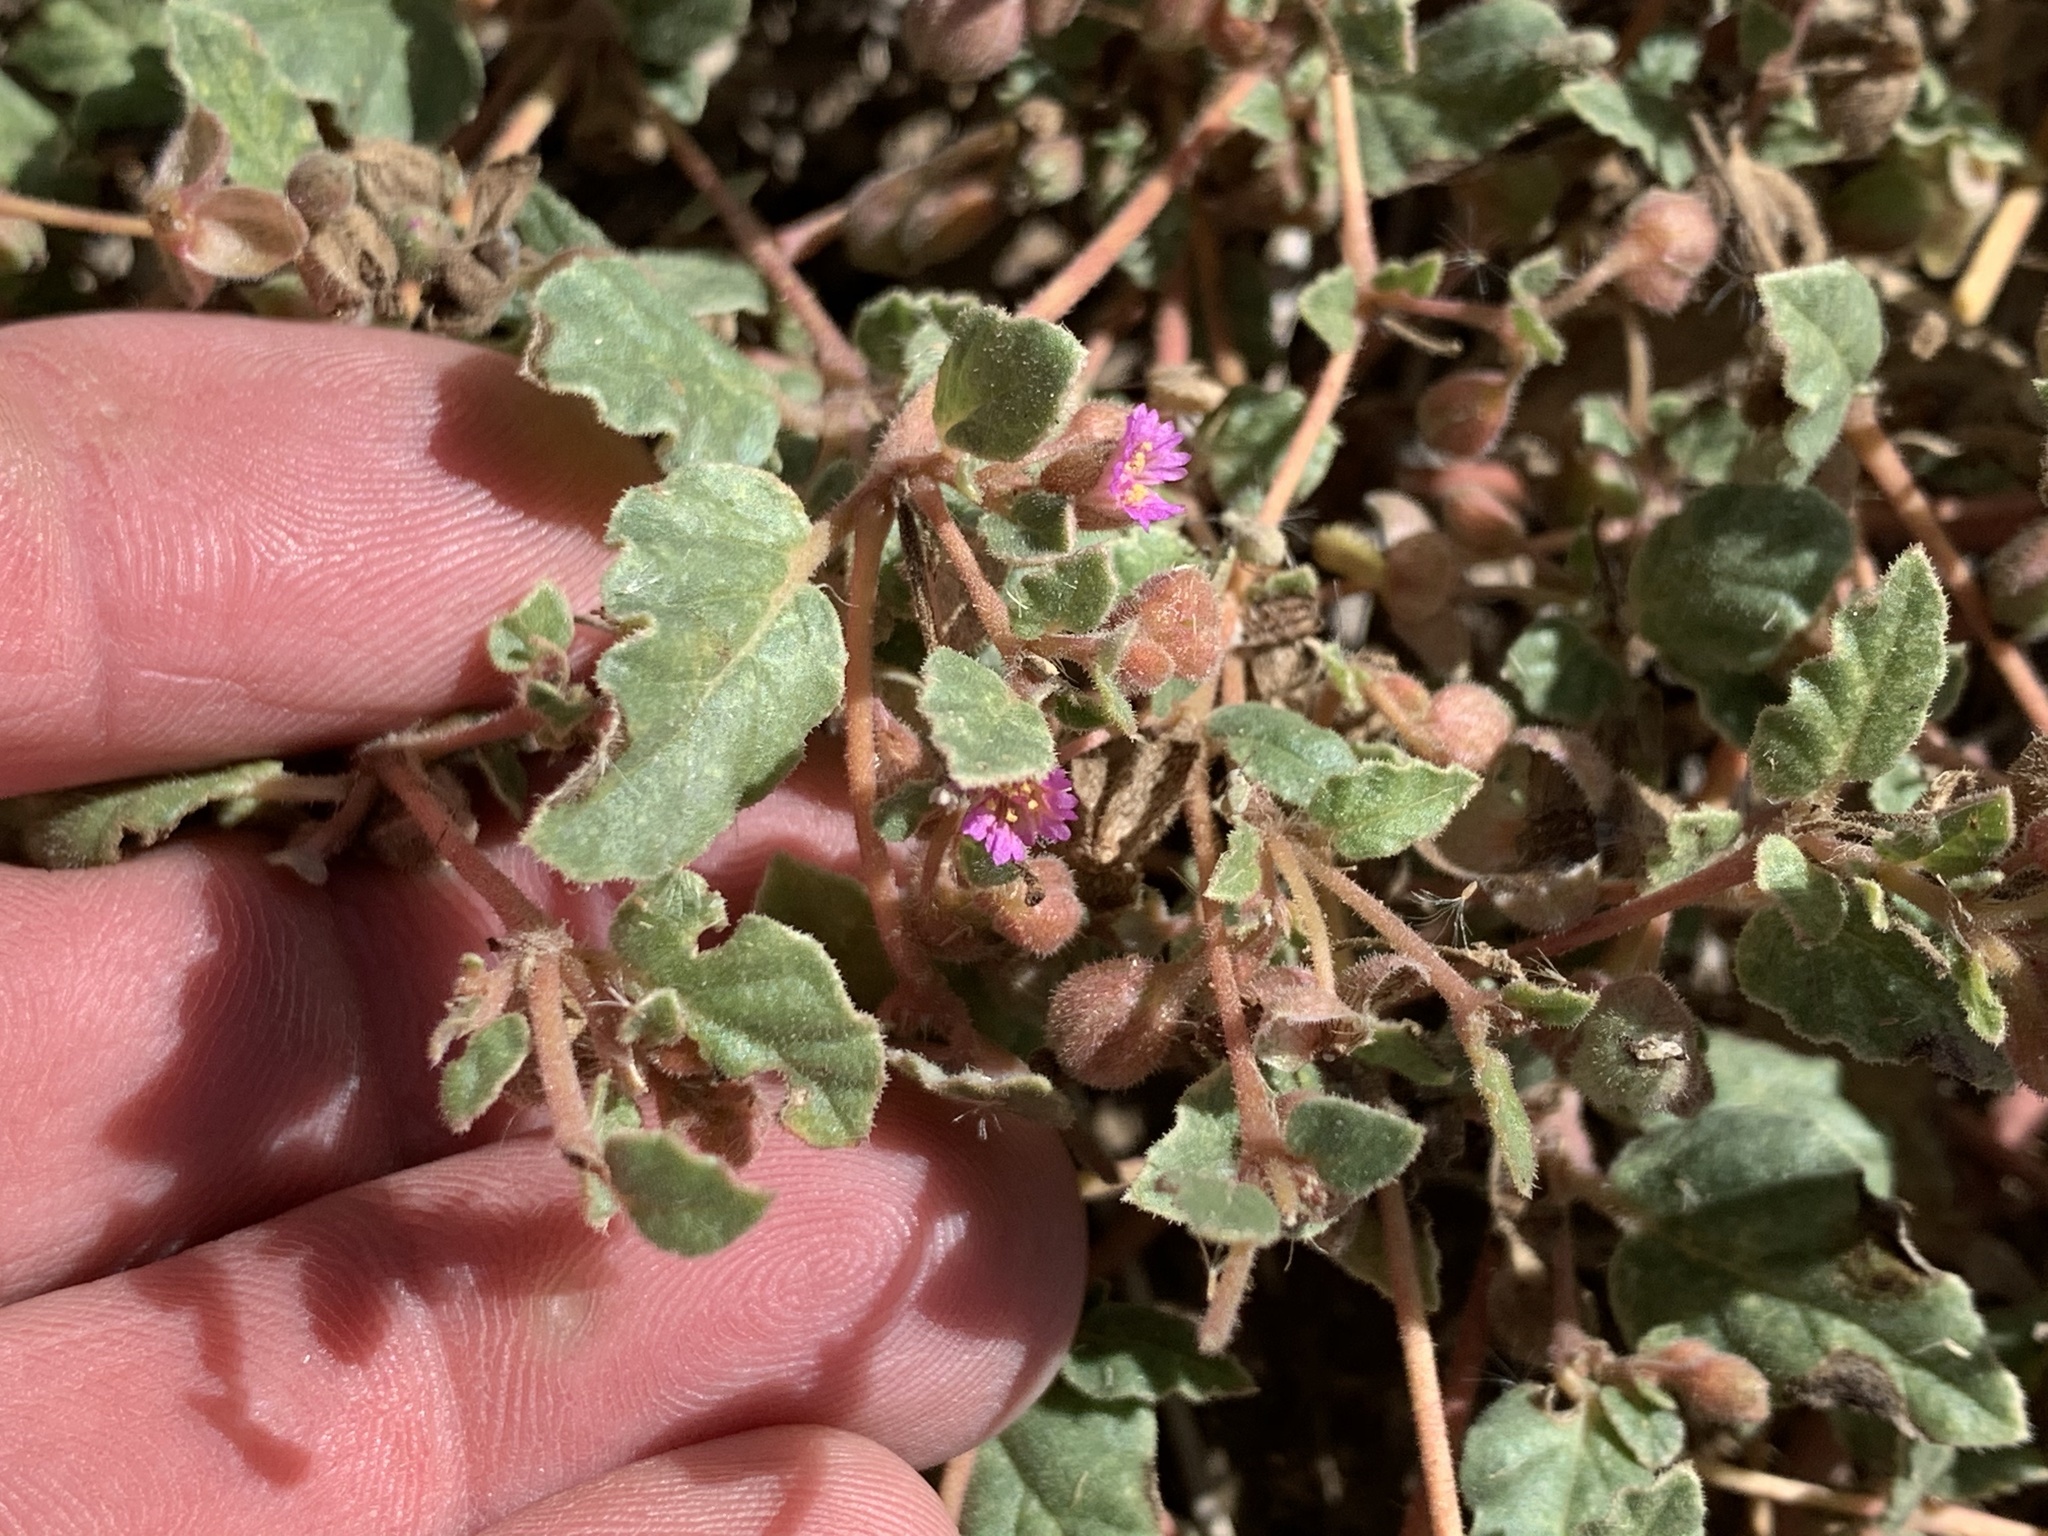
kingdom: Plantae
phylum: Tracheophyta
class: Magnoliopsida
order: Caryophyllales
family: Nyctaginaceae
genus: Allionia
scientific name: Allionia choisyi
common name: Trailing-four-o'clock
